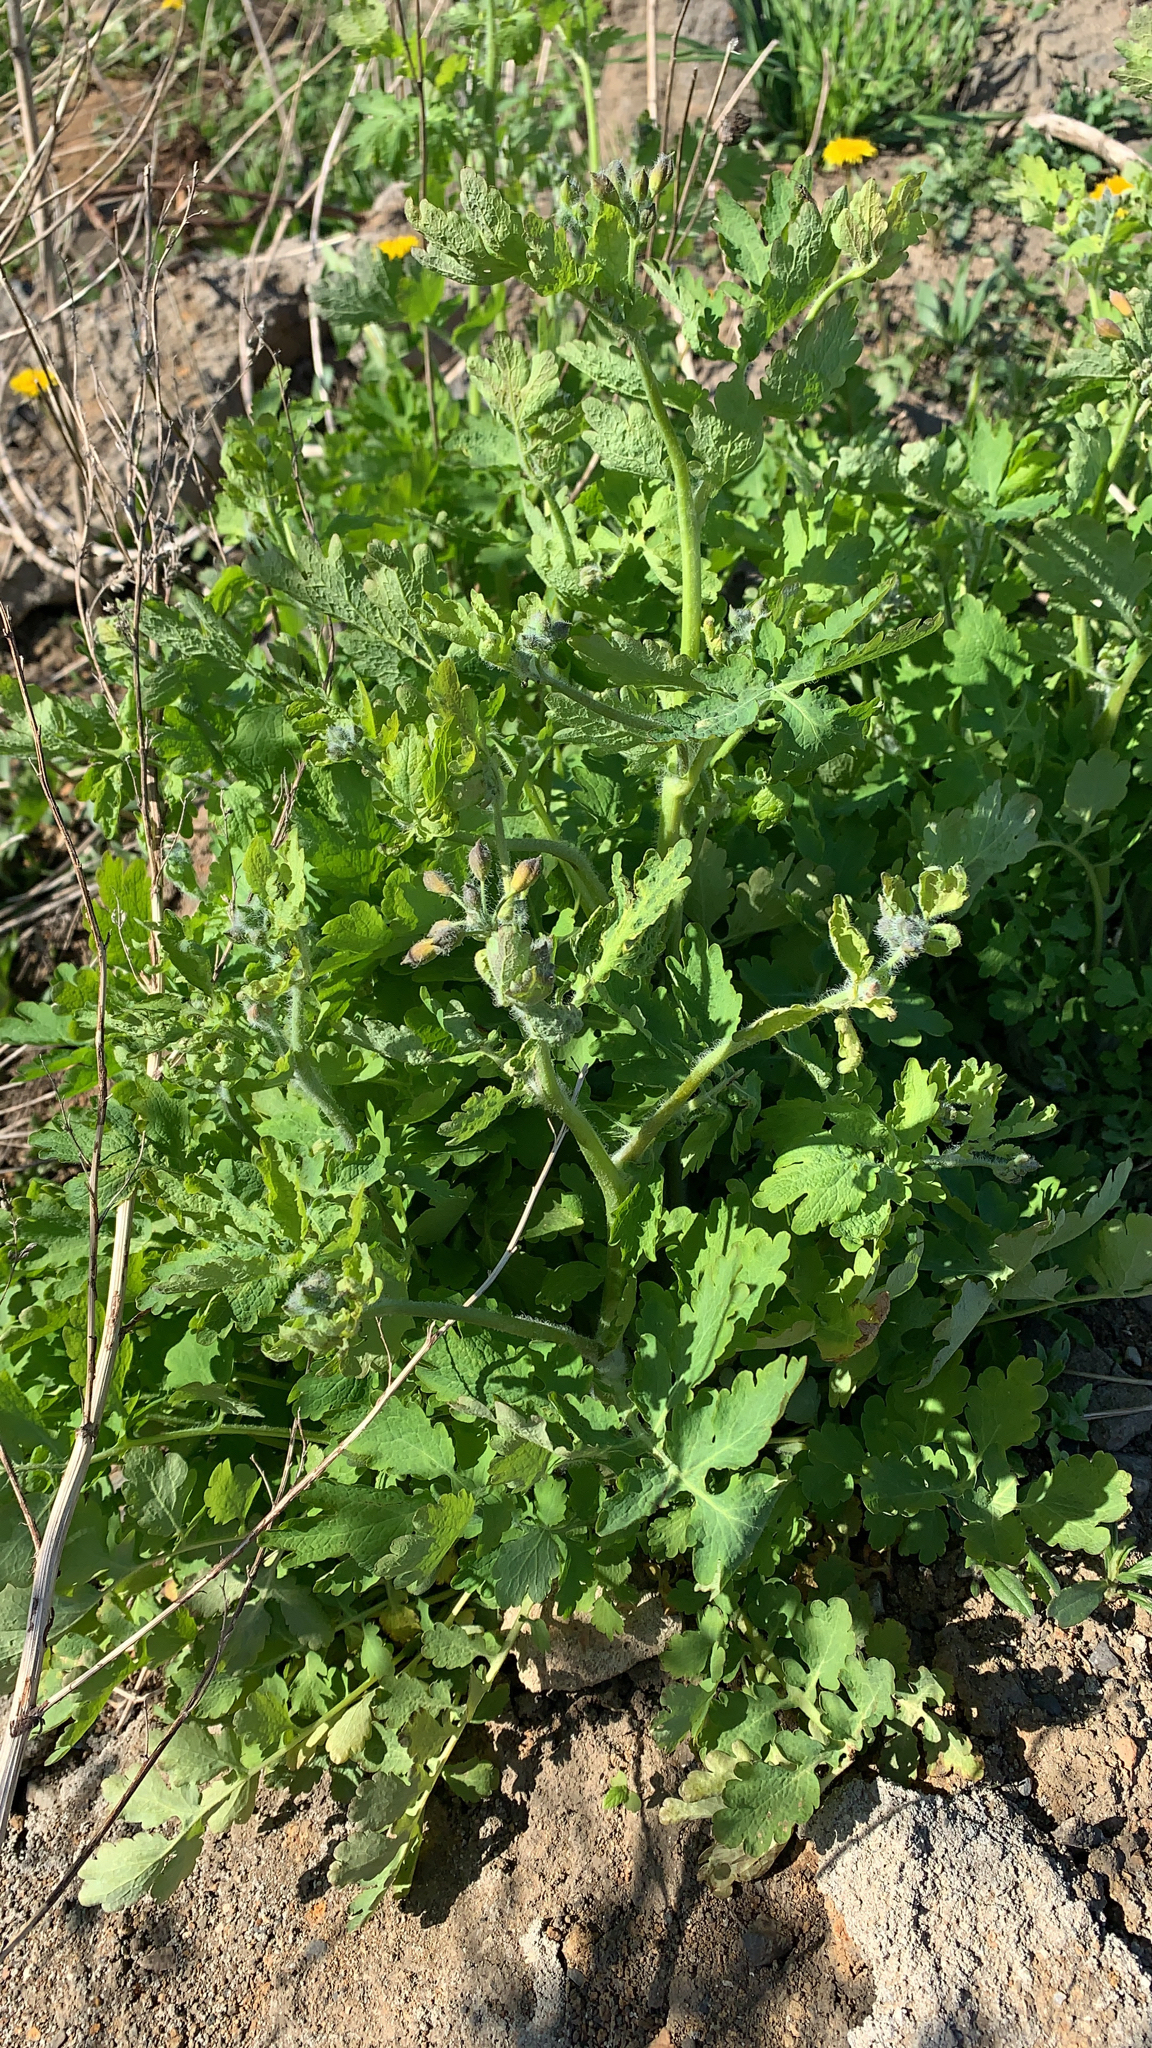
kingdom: Plantae
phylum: Tracheophyta
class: Magnoliopsida
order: Ranunculales
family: Papaveraceae
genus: Chelidonium
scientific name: Chelidonium majus
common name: Greater celandine
